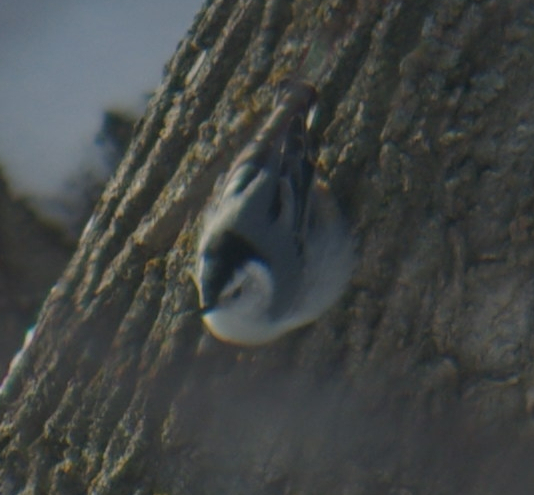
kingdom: Animalia
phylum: Chordata
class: Aves
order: Passeriformes
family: Sittidae
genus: Sitta
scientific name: Sitta carolinensis
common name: White-breasted nuthatch
